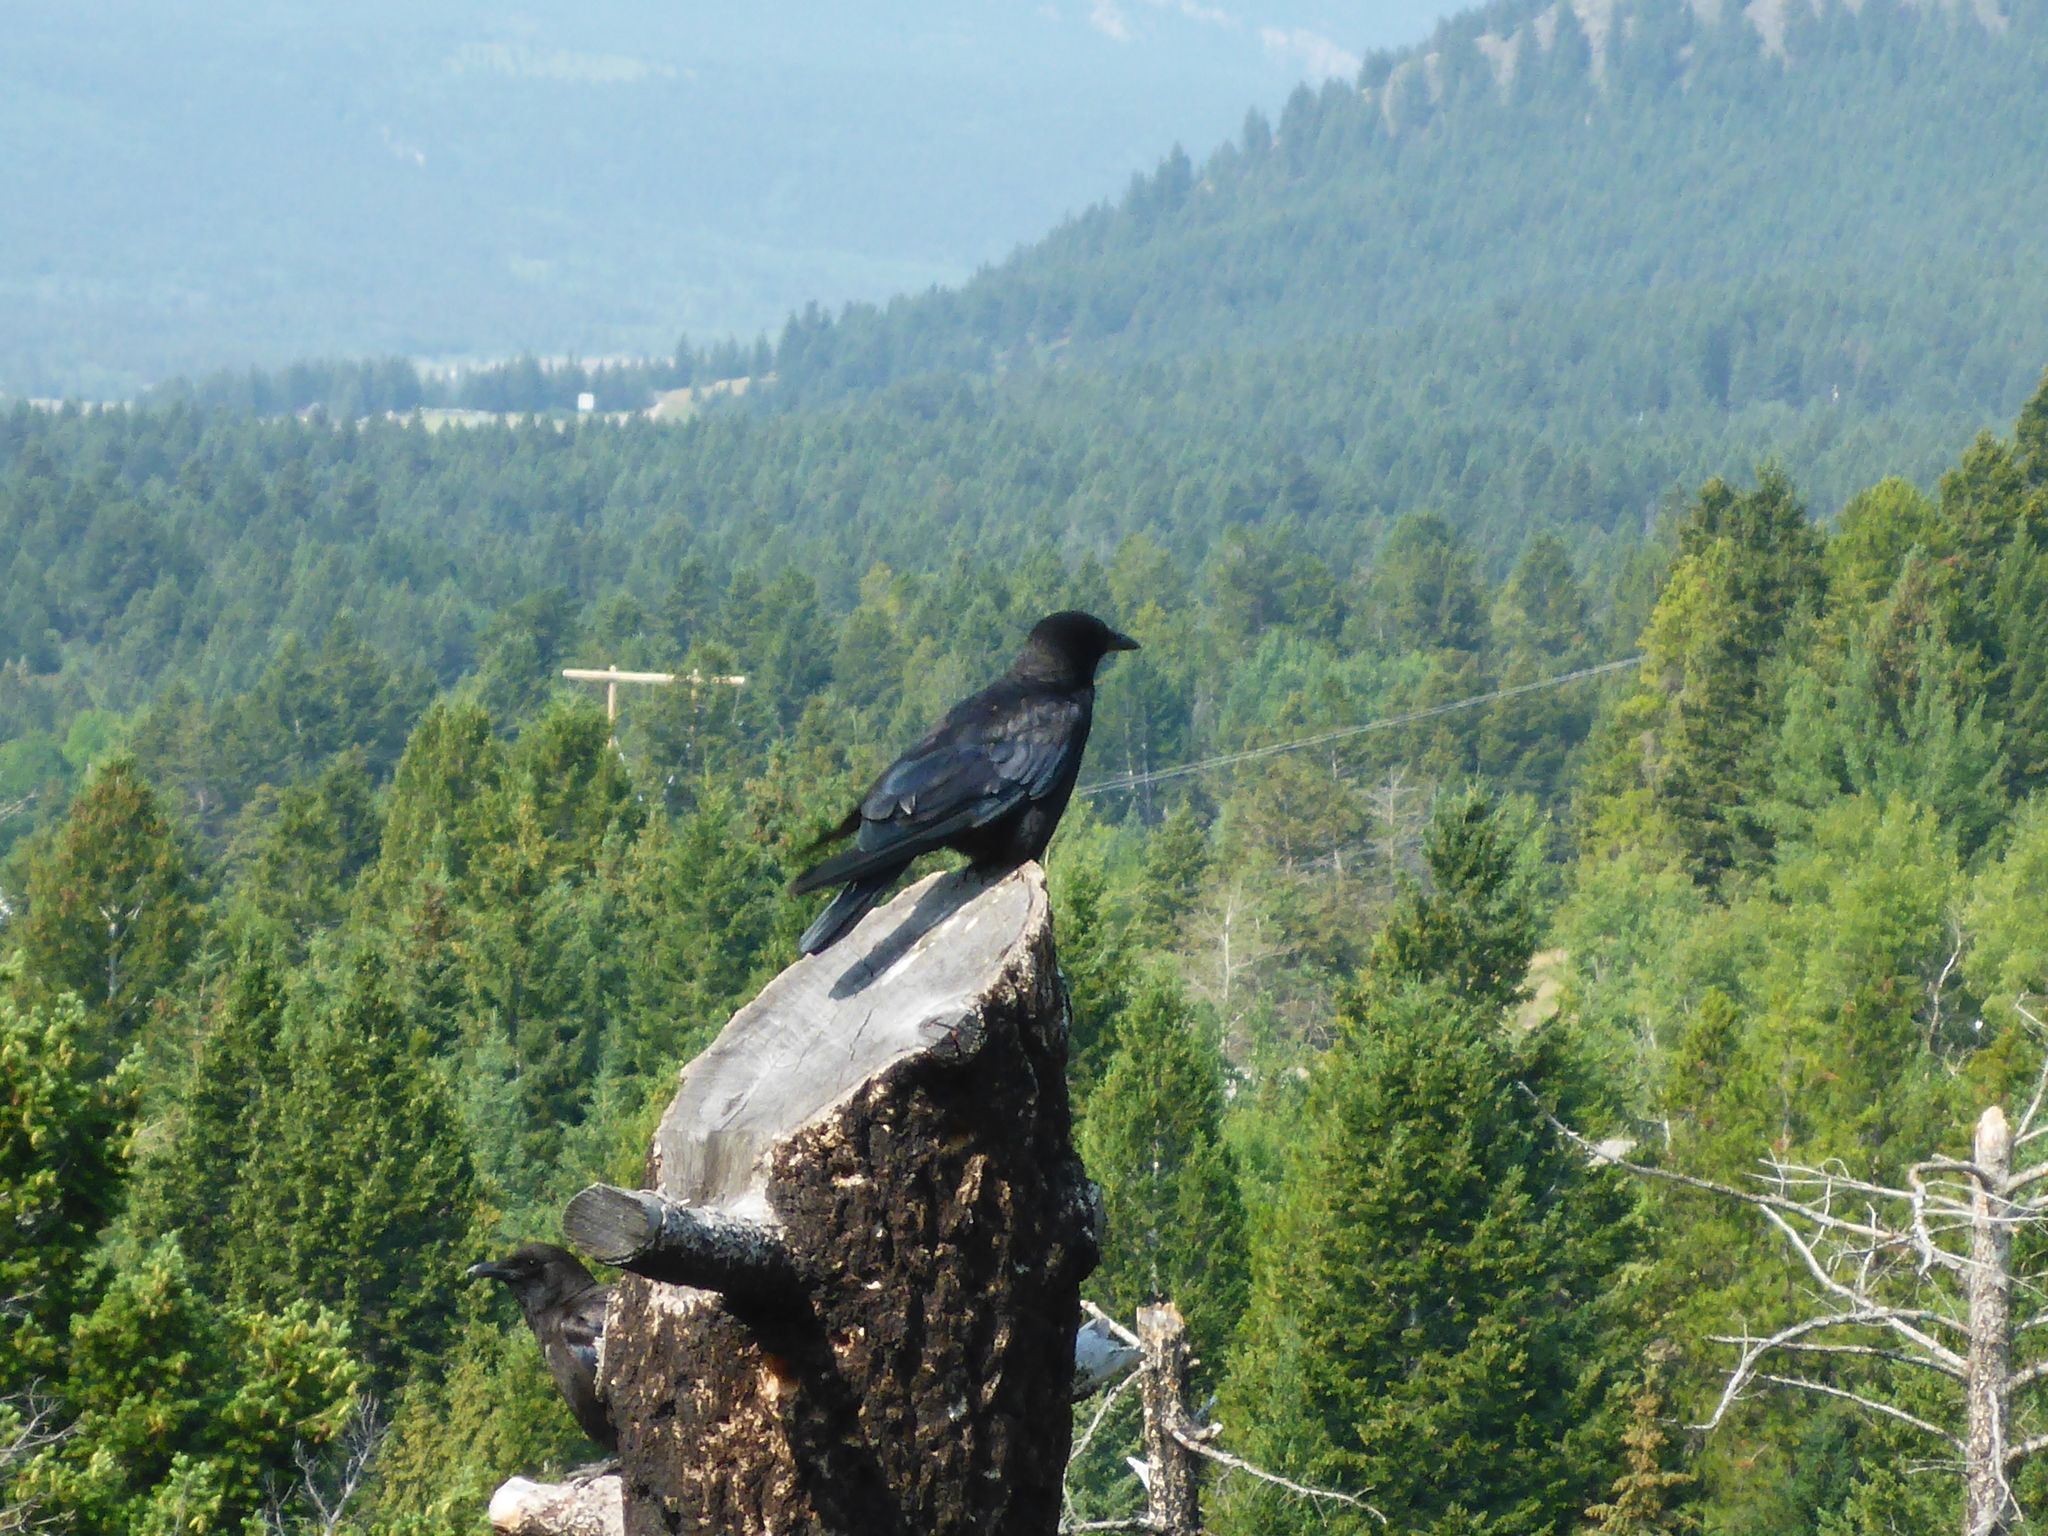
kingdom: Animalia
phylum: Chordata
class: Aves
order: Passeriformes
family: Corvidae
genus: Corvus
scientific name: Corvus brachyrhynchos
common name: American crow
